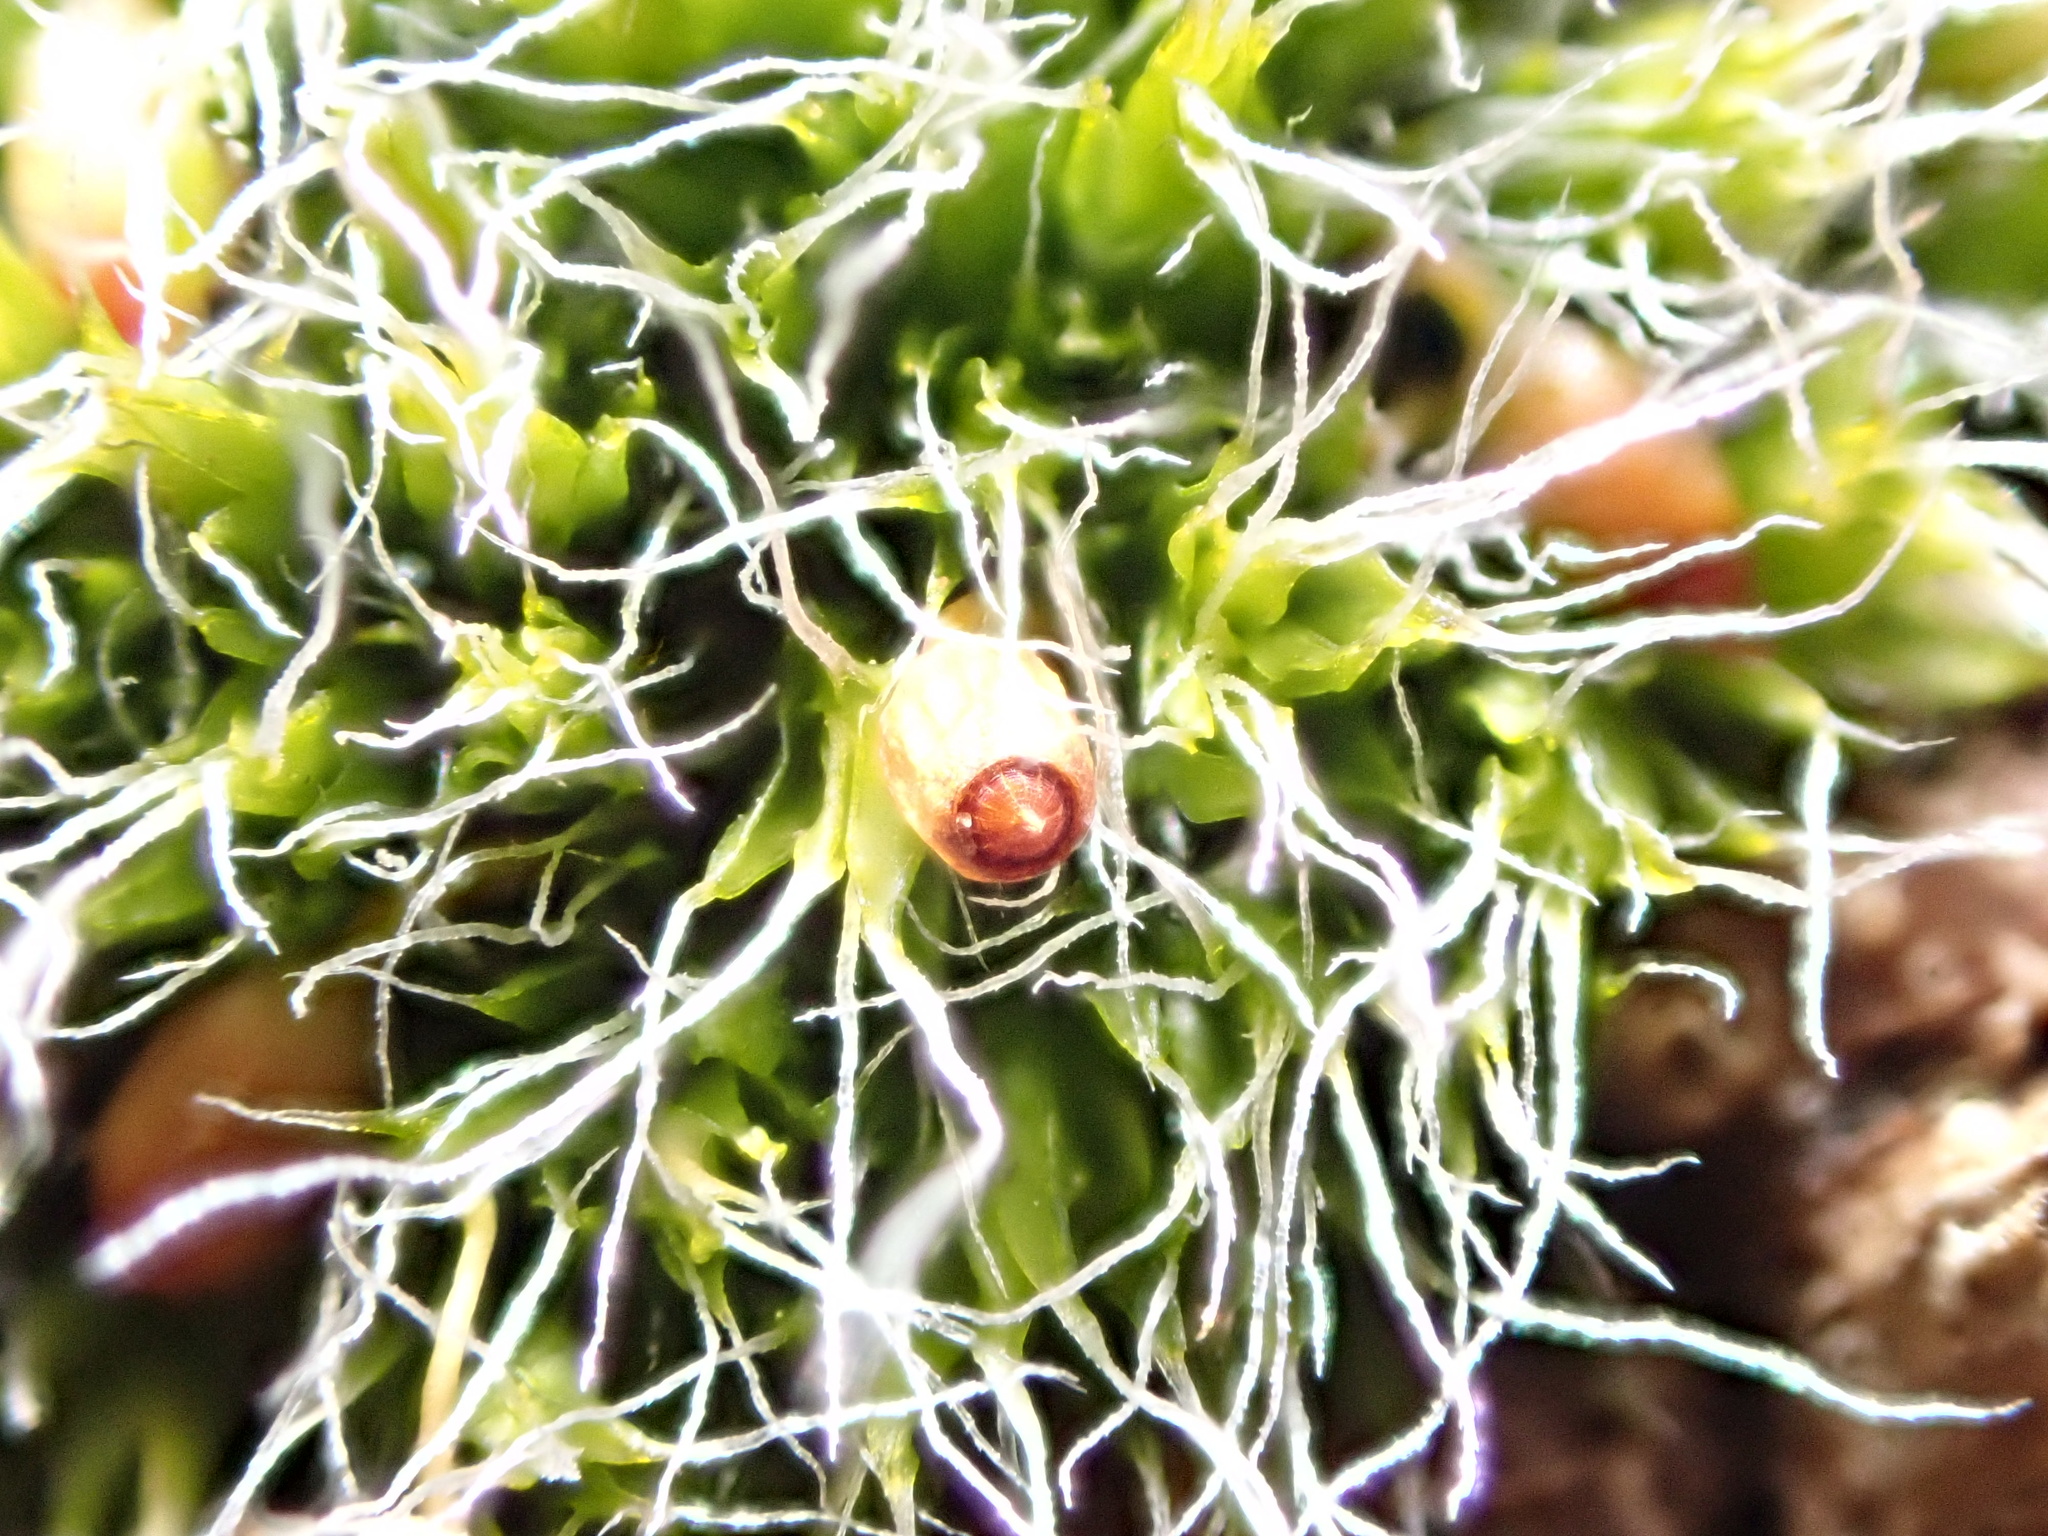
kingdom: Plantae
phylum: Bryophyta
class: Bryopsida
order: Grimmiales
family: Grimmiaceae
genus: Grimmia
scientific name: Grimmia pulvinata
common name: Grey-cushioned grimmia
